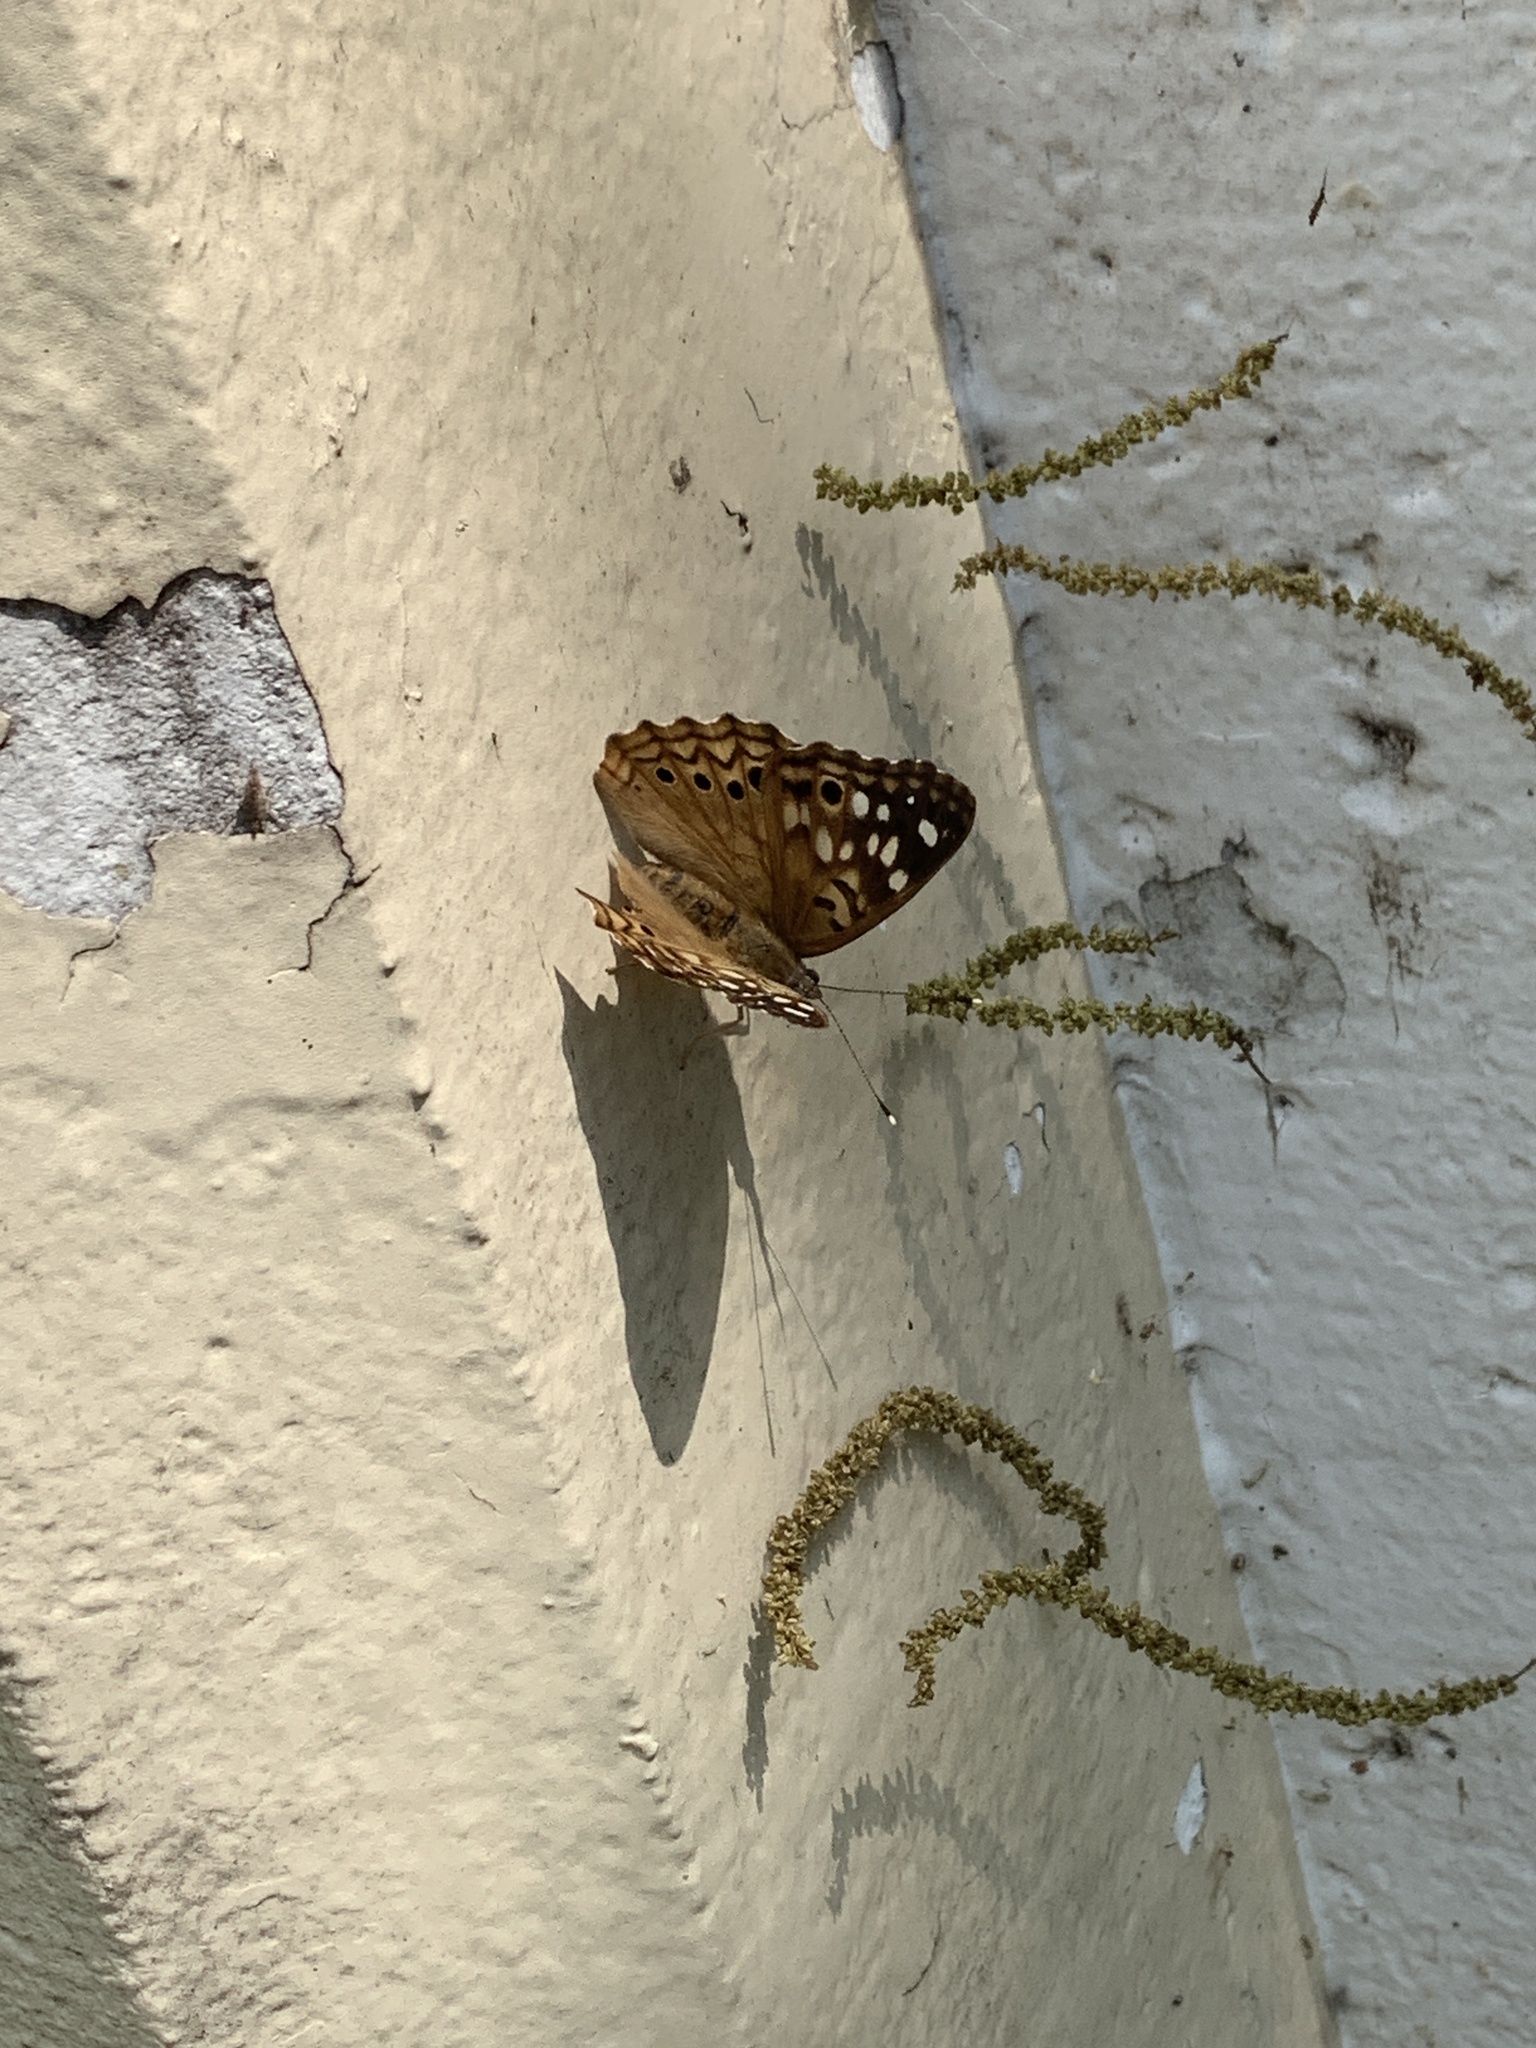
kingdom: Animalia
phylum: Arthropoda
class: Insecta
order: Lepidoptera
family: Nymphalidae
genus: Asterocampa
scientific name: Asterocampa celtis
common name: Hackberry emperor
